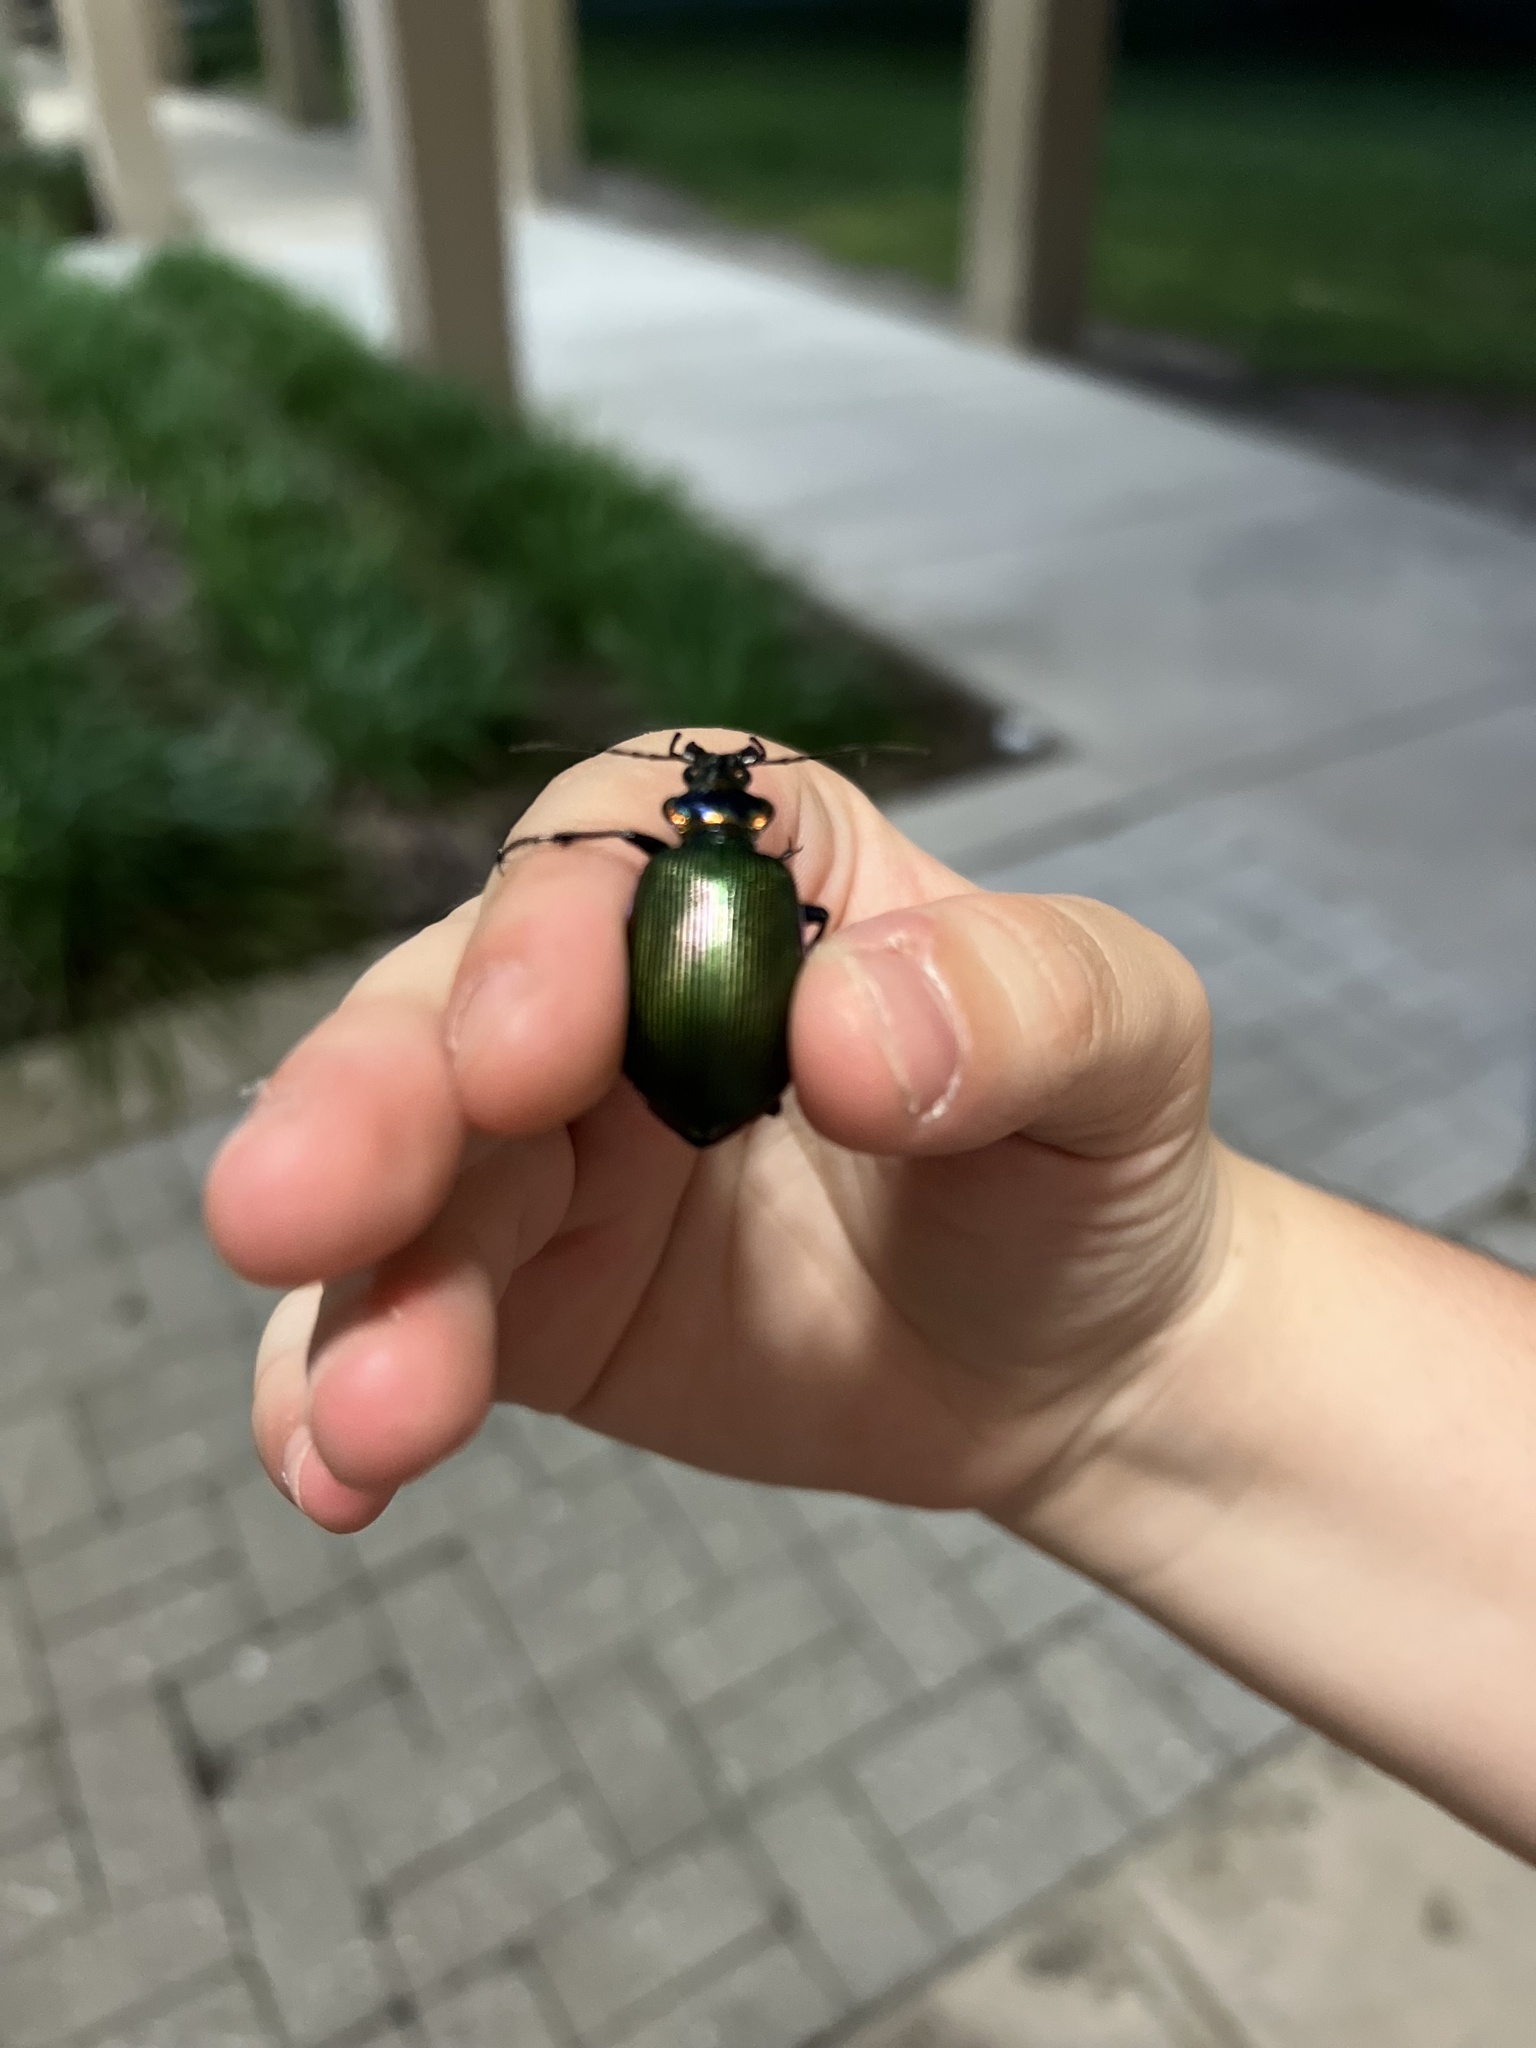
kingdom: Animalia
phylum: Arthropoda
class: Insecta
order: Coleoptera
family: Carabidae
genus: Calosoma
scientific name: Calosoma scrutator
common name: Fiery searcher beetle
